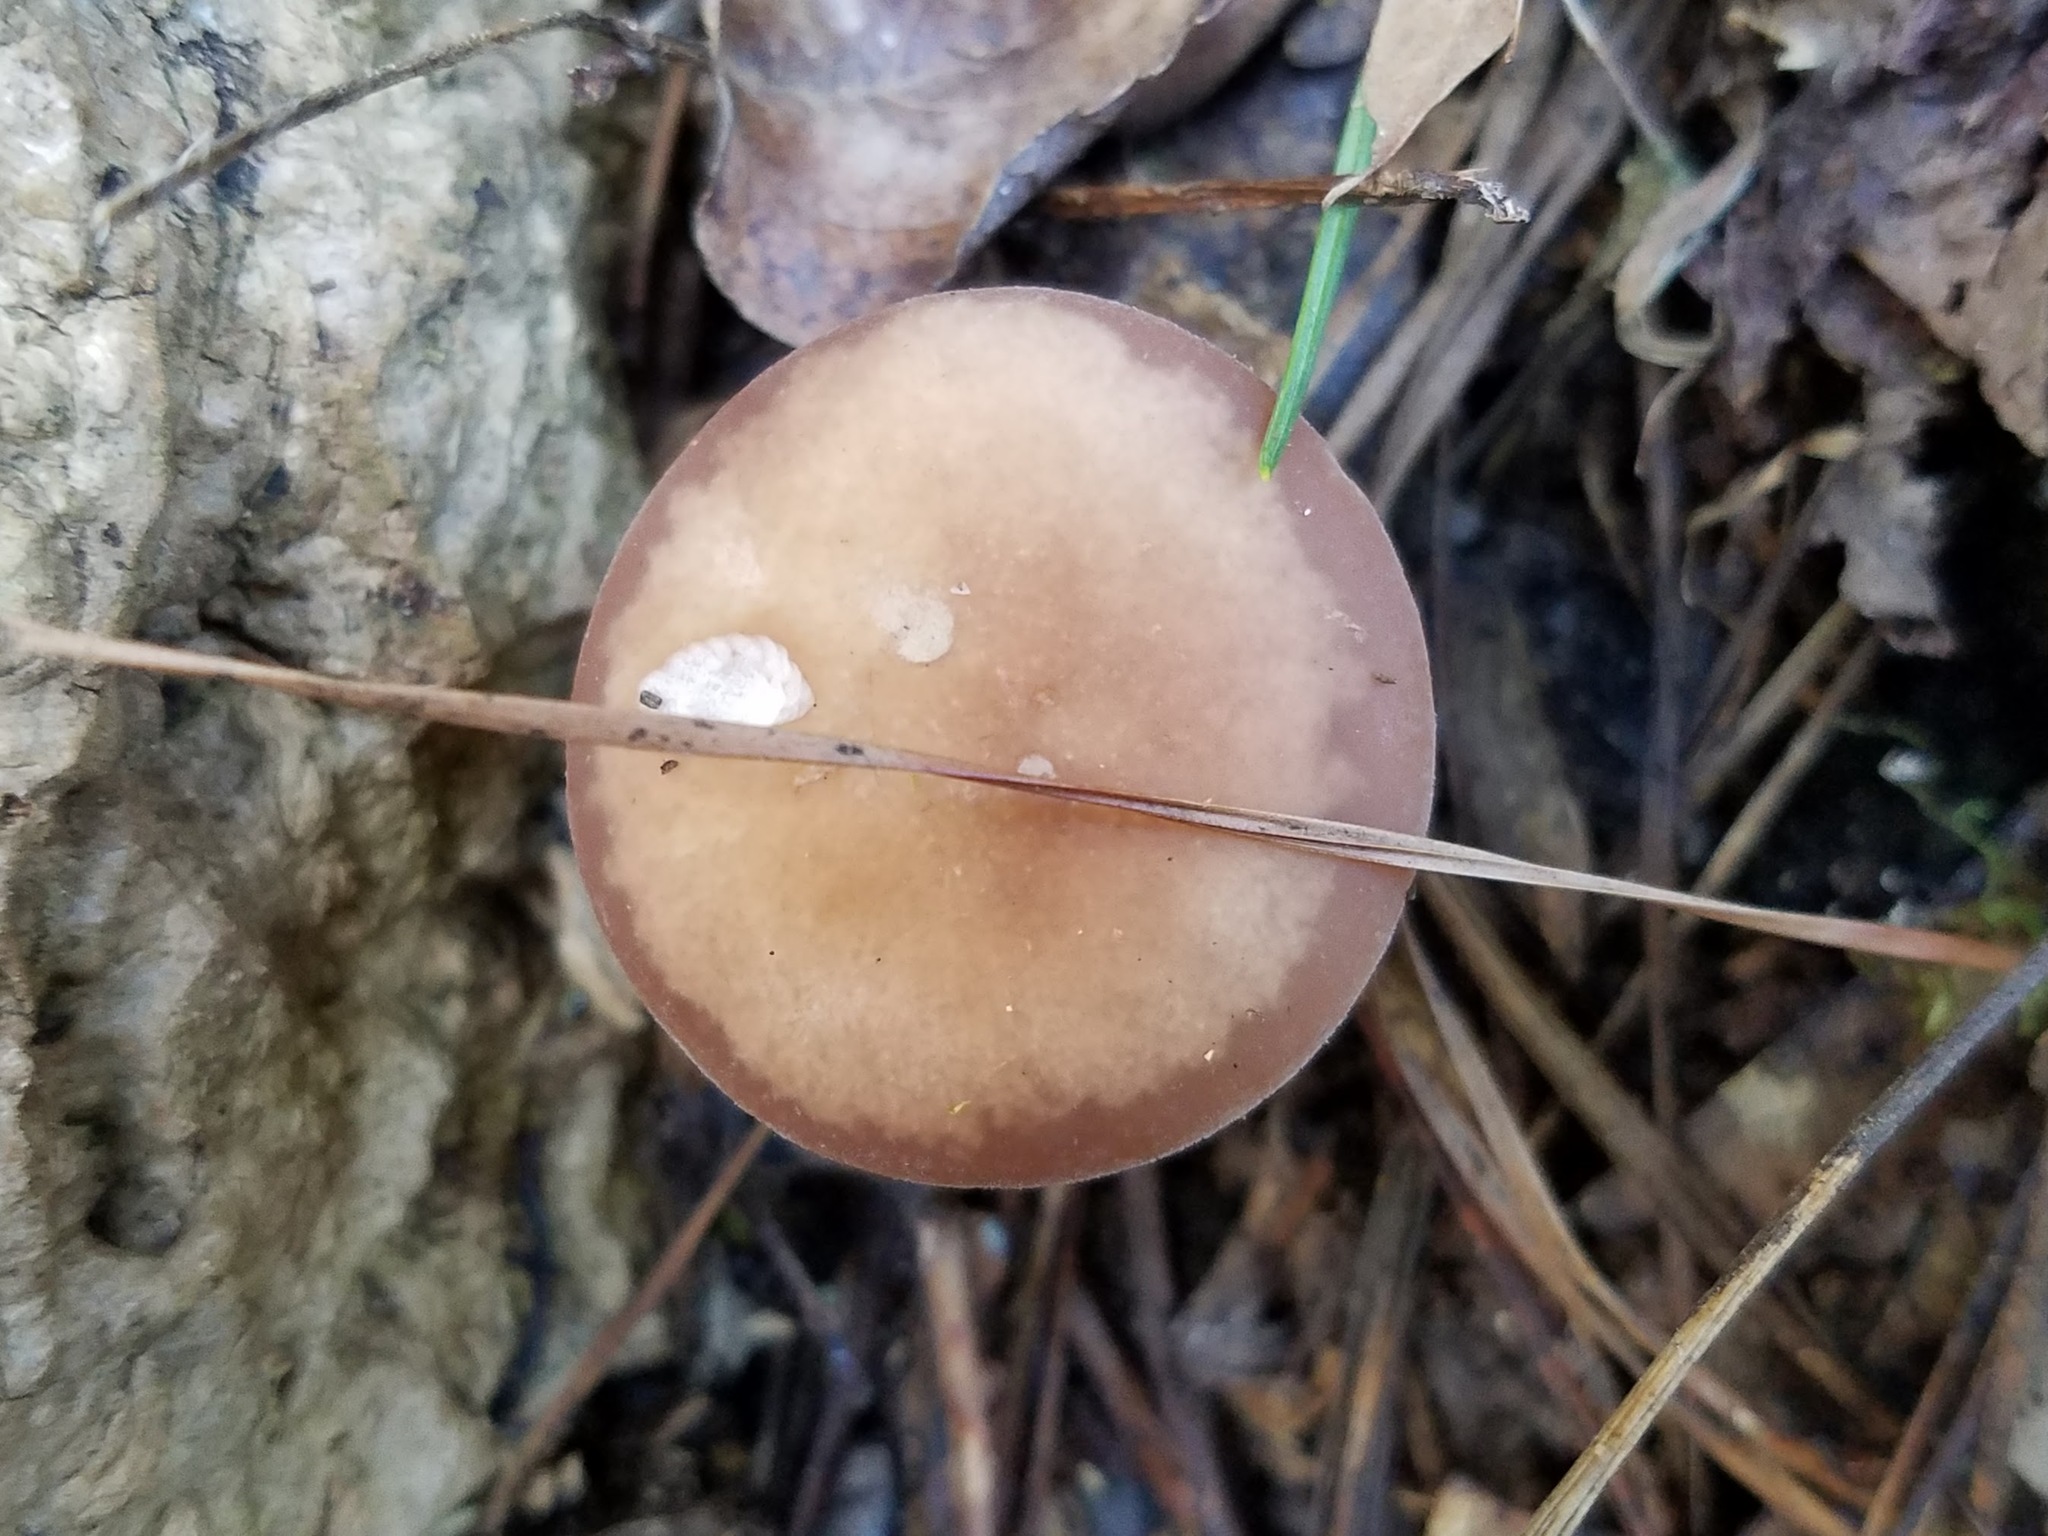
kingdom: Fungi
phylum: Basidiomycota
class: Agaricomycetes
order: Agaricales
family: Bolbitiaceae
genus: Panaeolina
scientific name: Panaeolina foenisecii
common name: Brown hay cap
